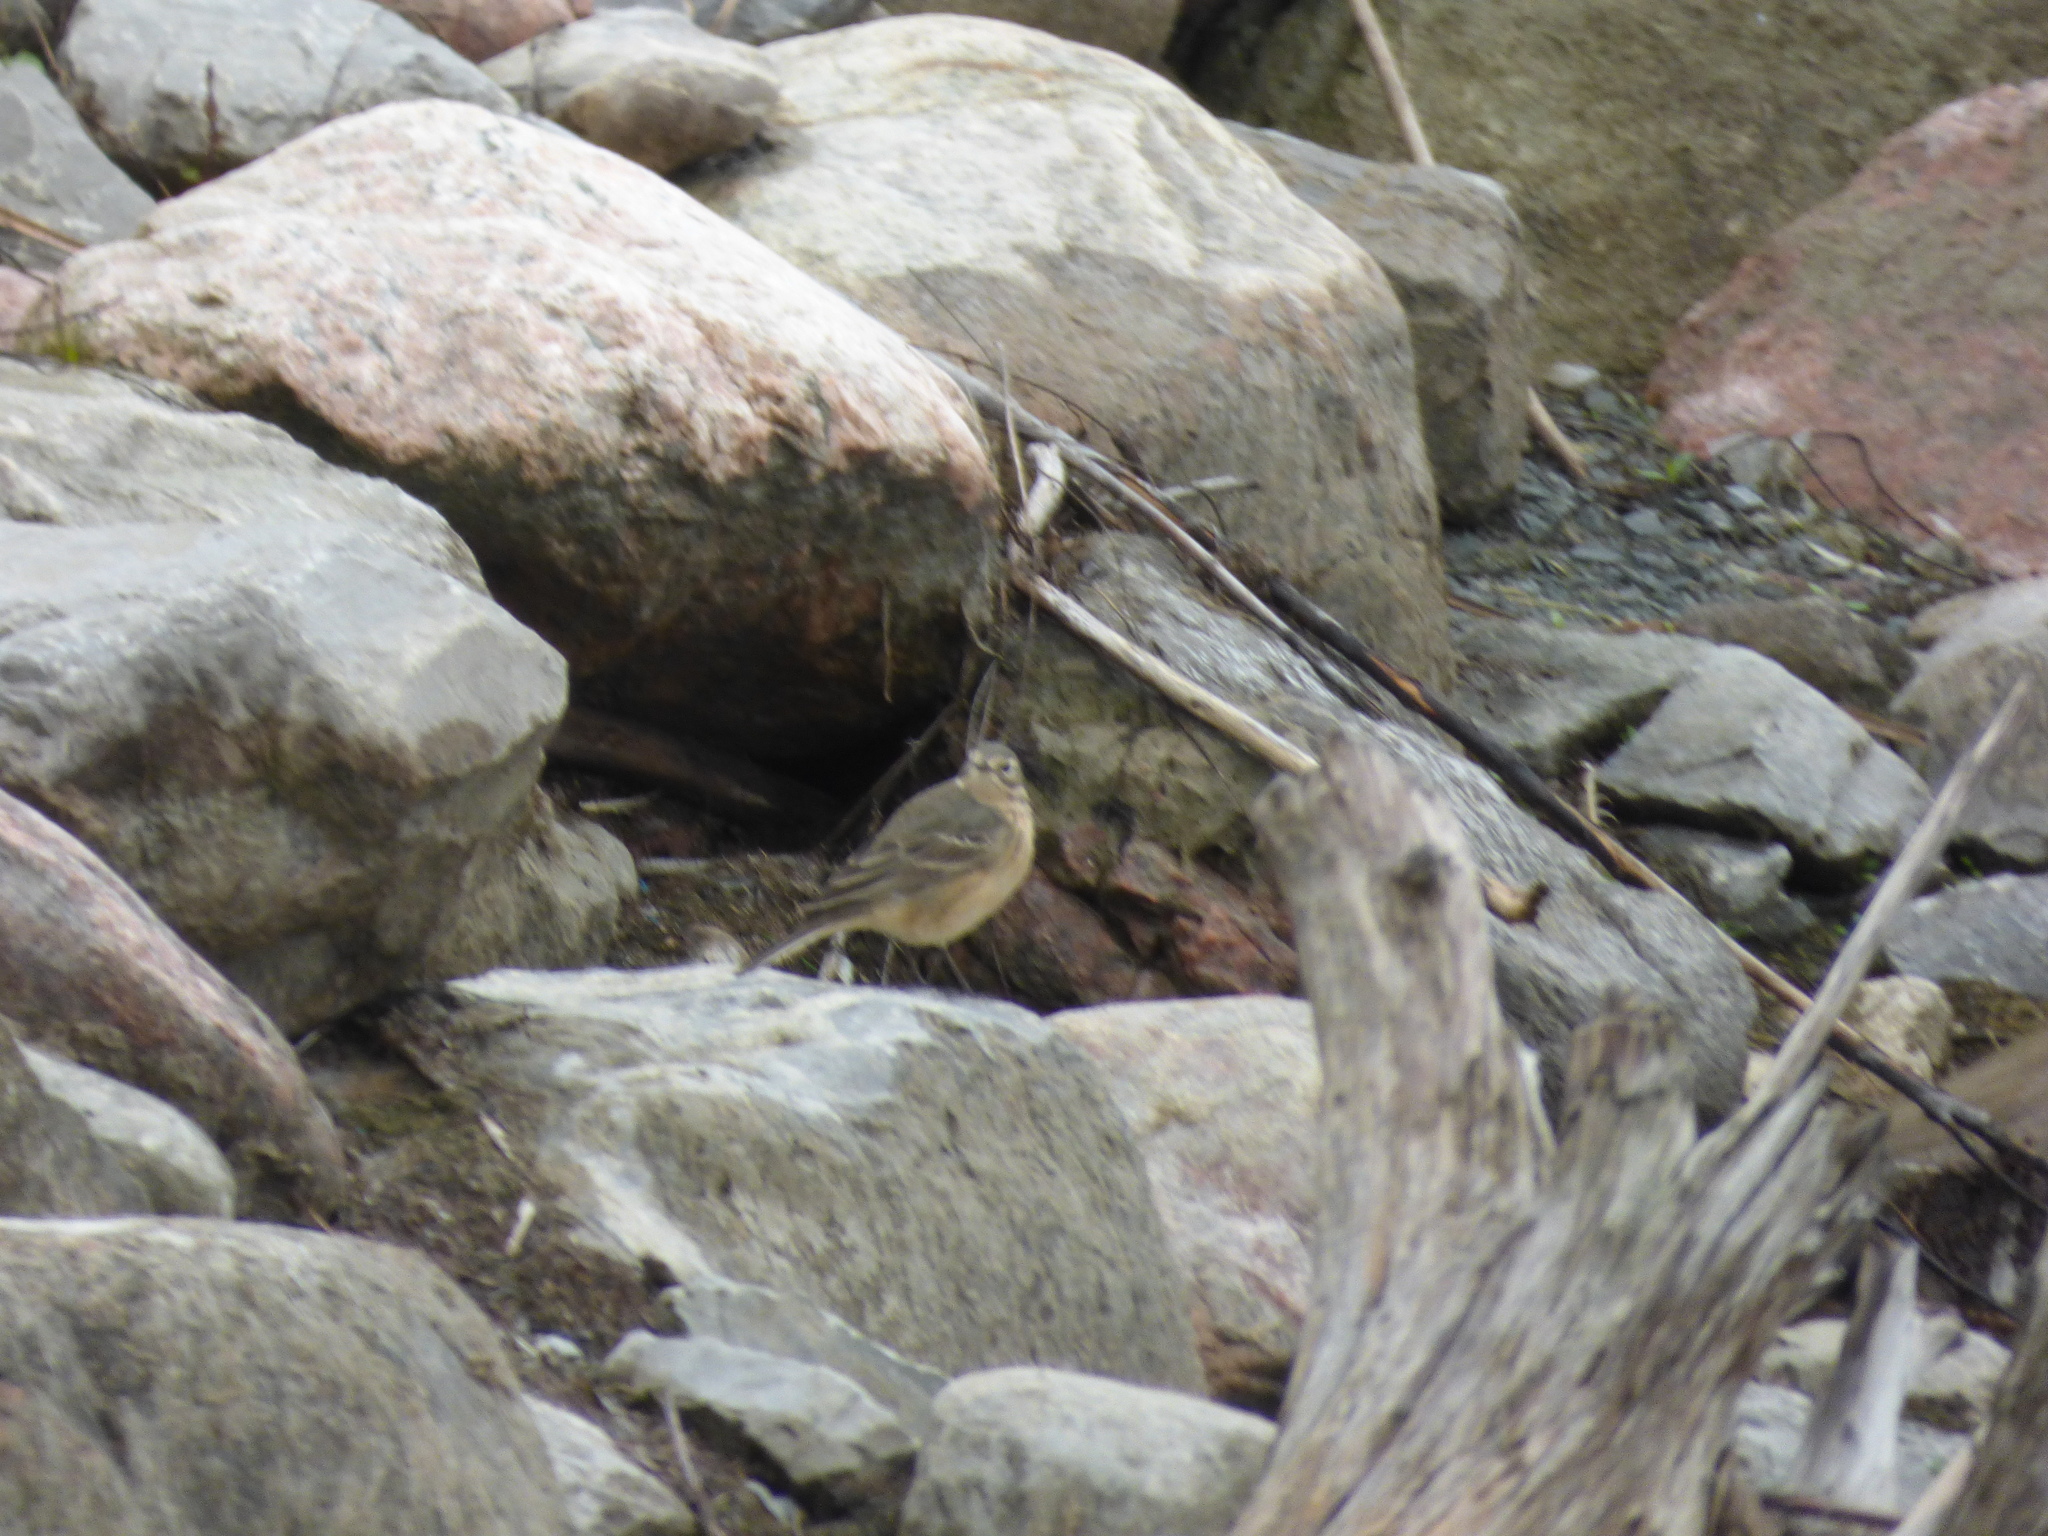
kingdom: Animalia
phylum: Chordata
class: Aves
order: Passeriformes
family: Motacillidae
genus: Anthus
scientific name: Anthus rubescens
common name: Buff-bellied pipit
